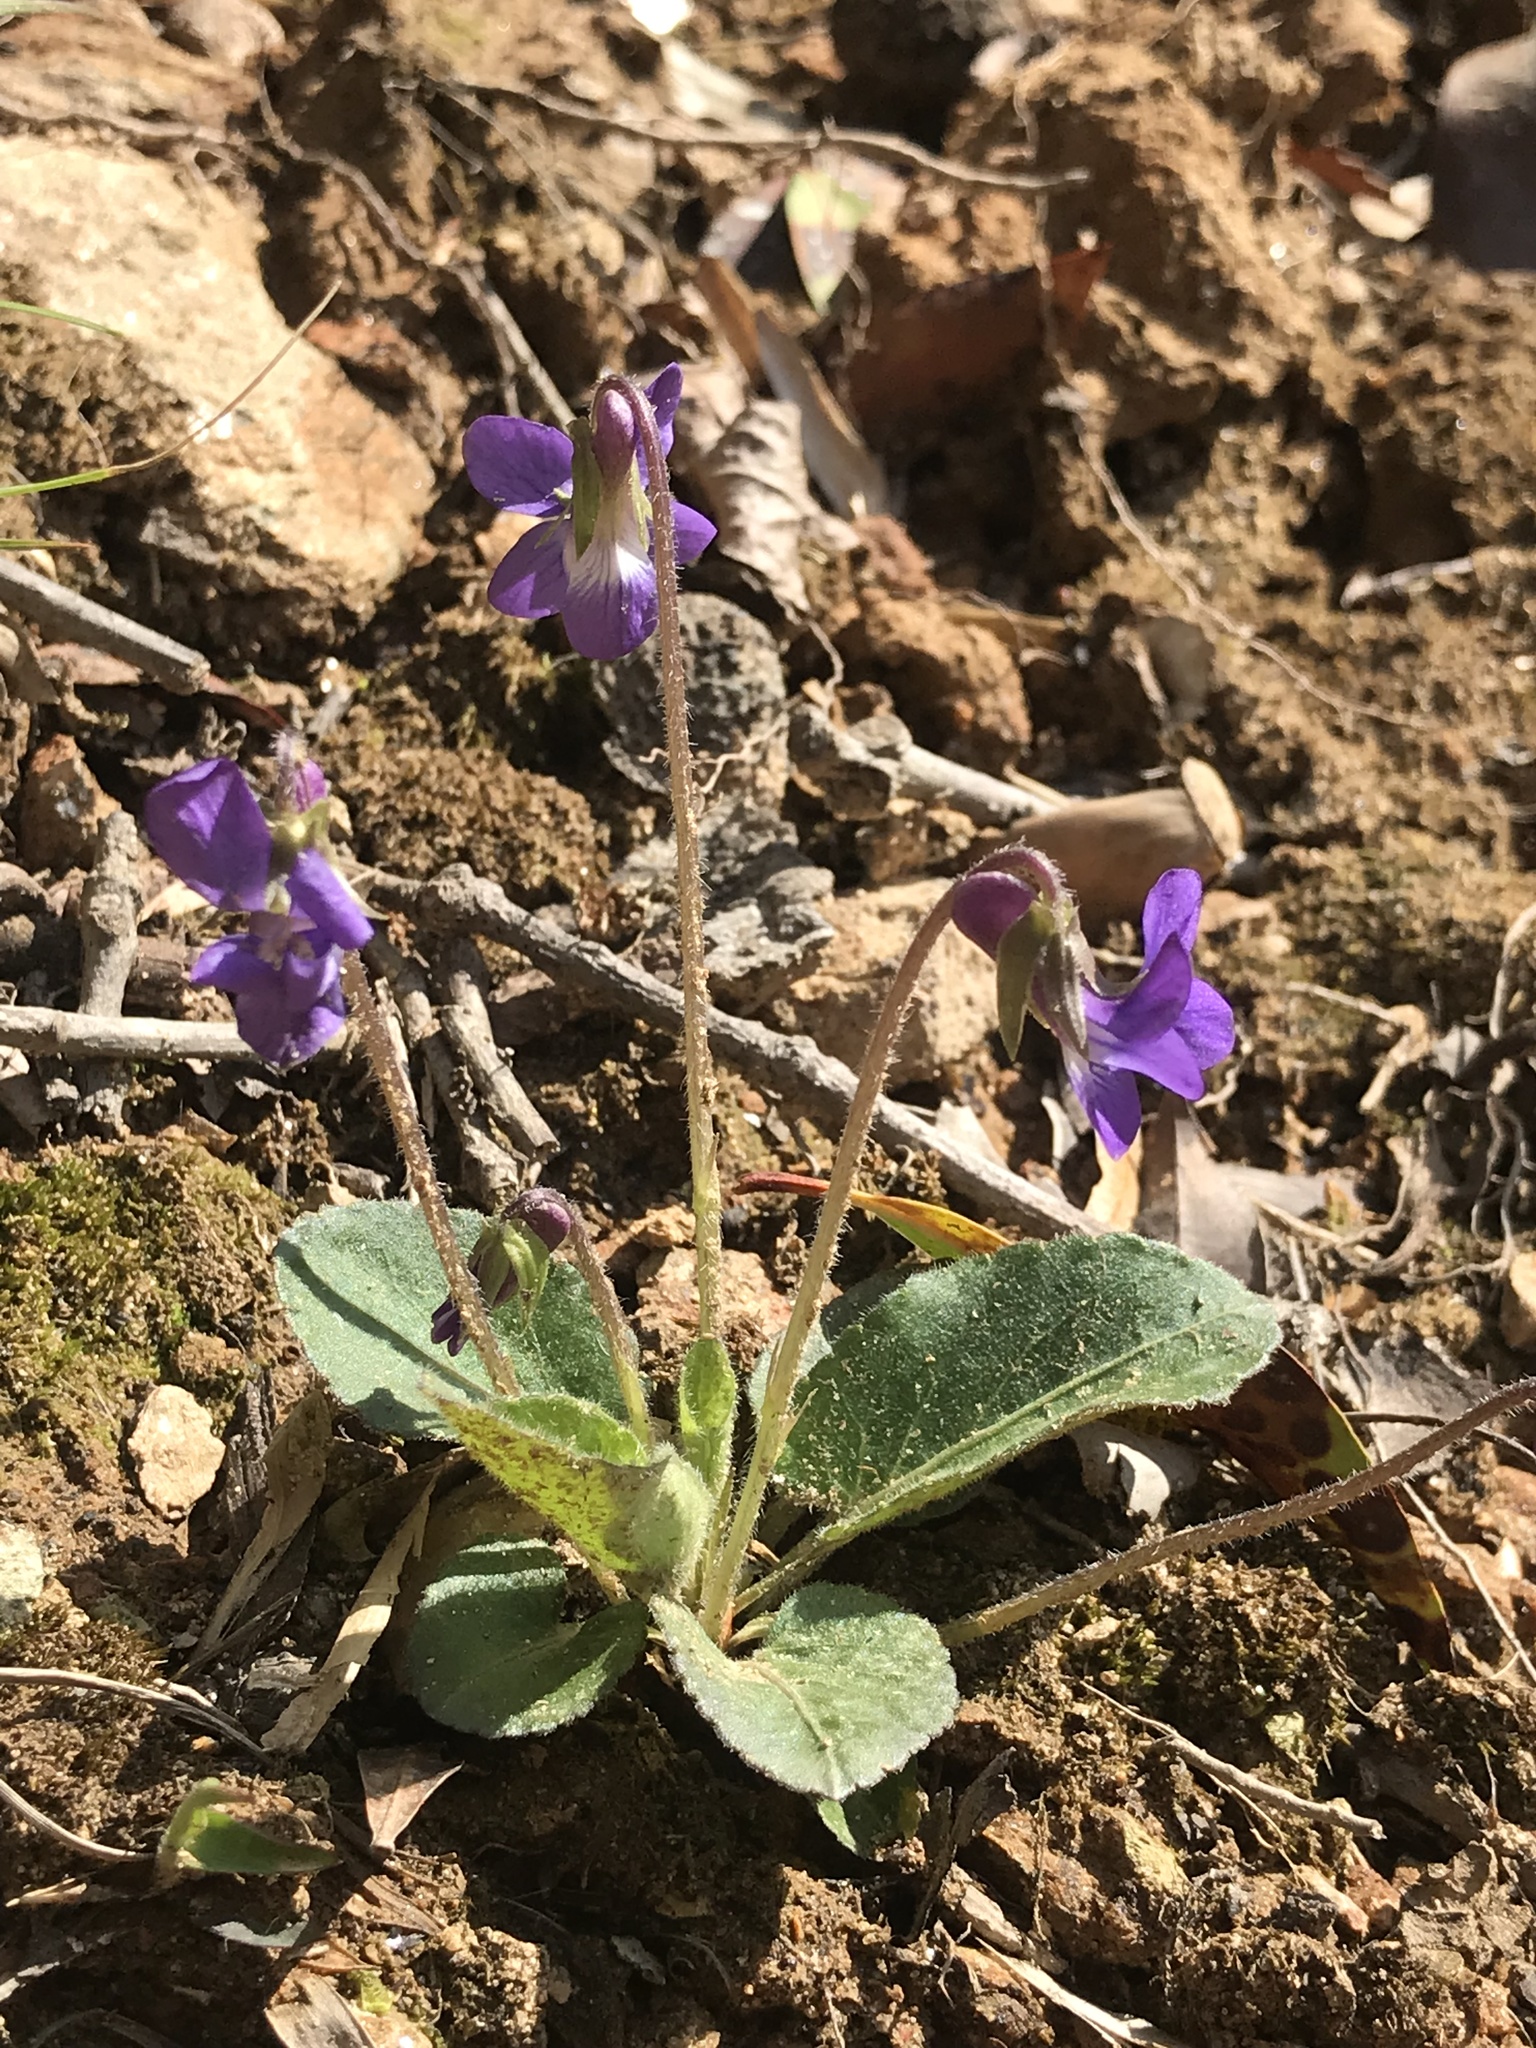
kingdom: Plantae
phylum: Tracheophyta
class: Magnoliopsida
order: Malpighiales
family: Violaceae
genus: Viola
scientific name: Viola sagittata
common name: Arrowhead violet
